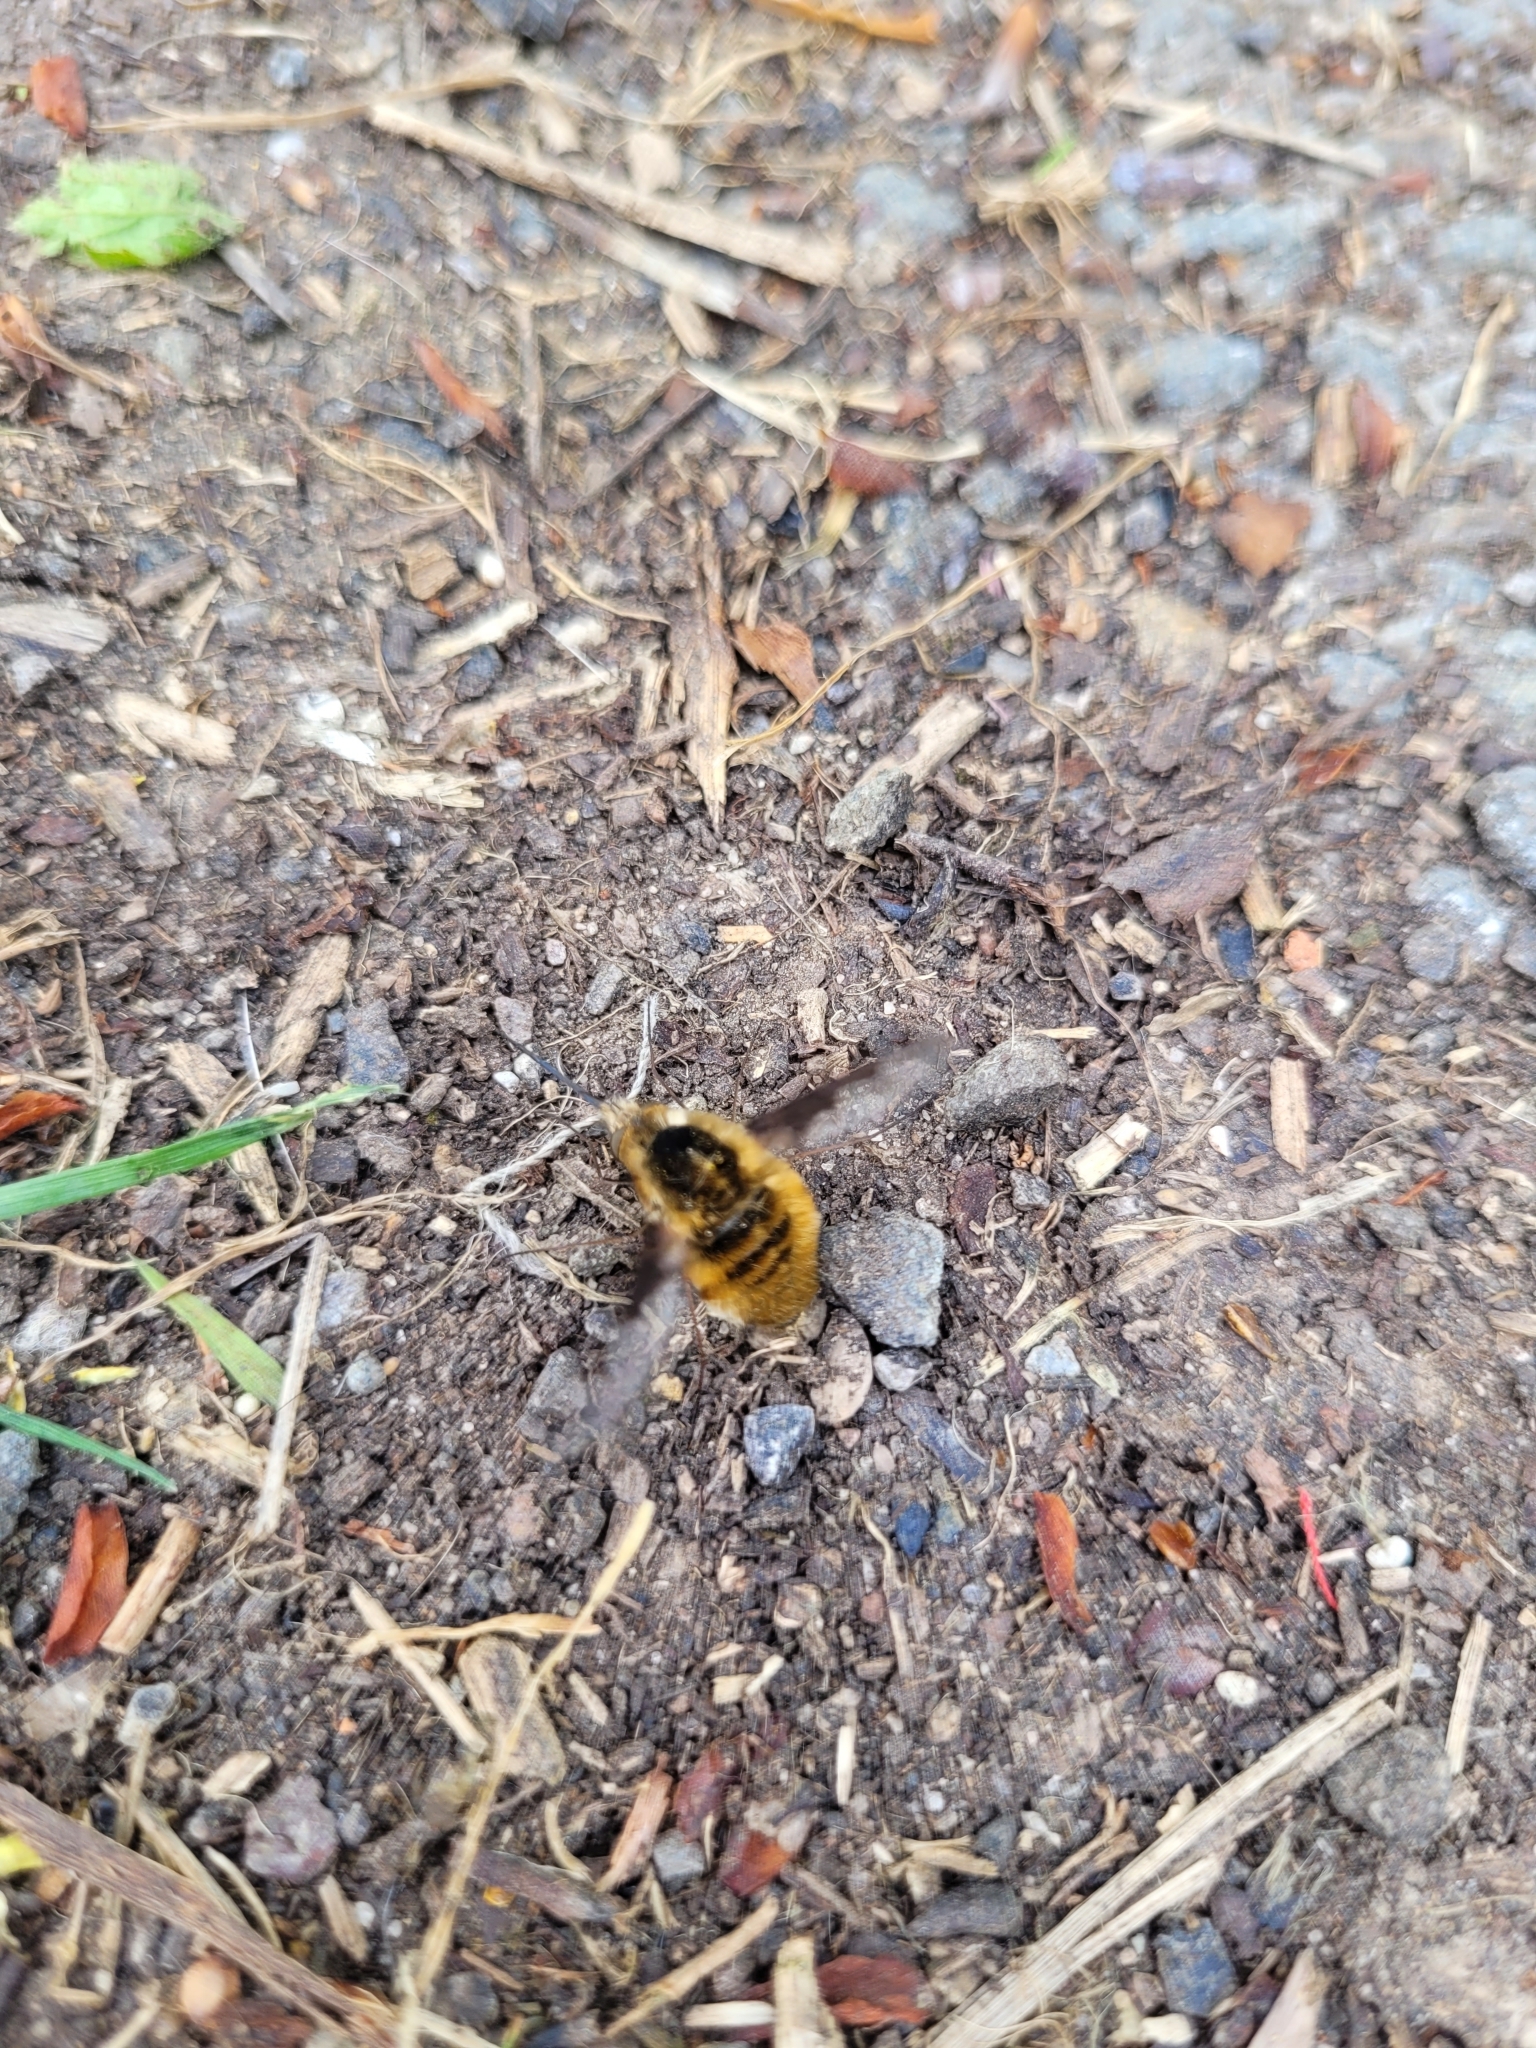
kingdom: Animalia
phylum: Arthropoda
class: Insecta
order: Diptera
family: Bombyliidae
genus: Bombylius
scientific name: Bombylius major
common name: Bee fly
